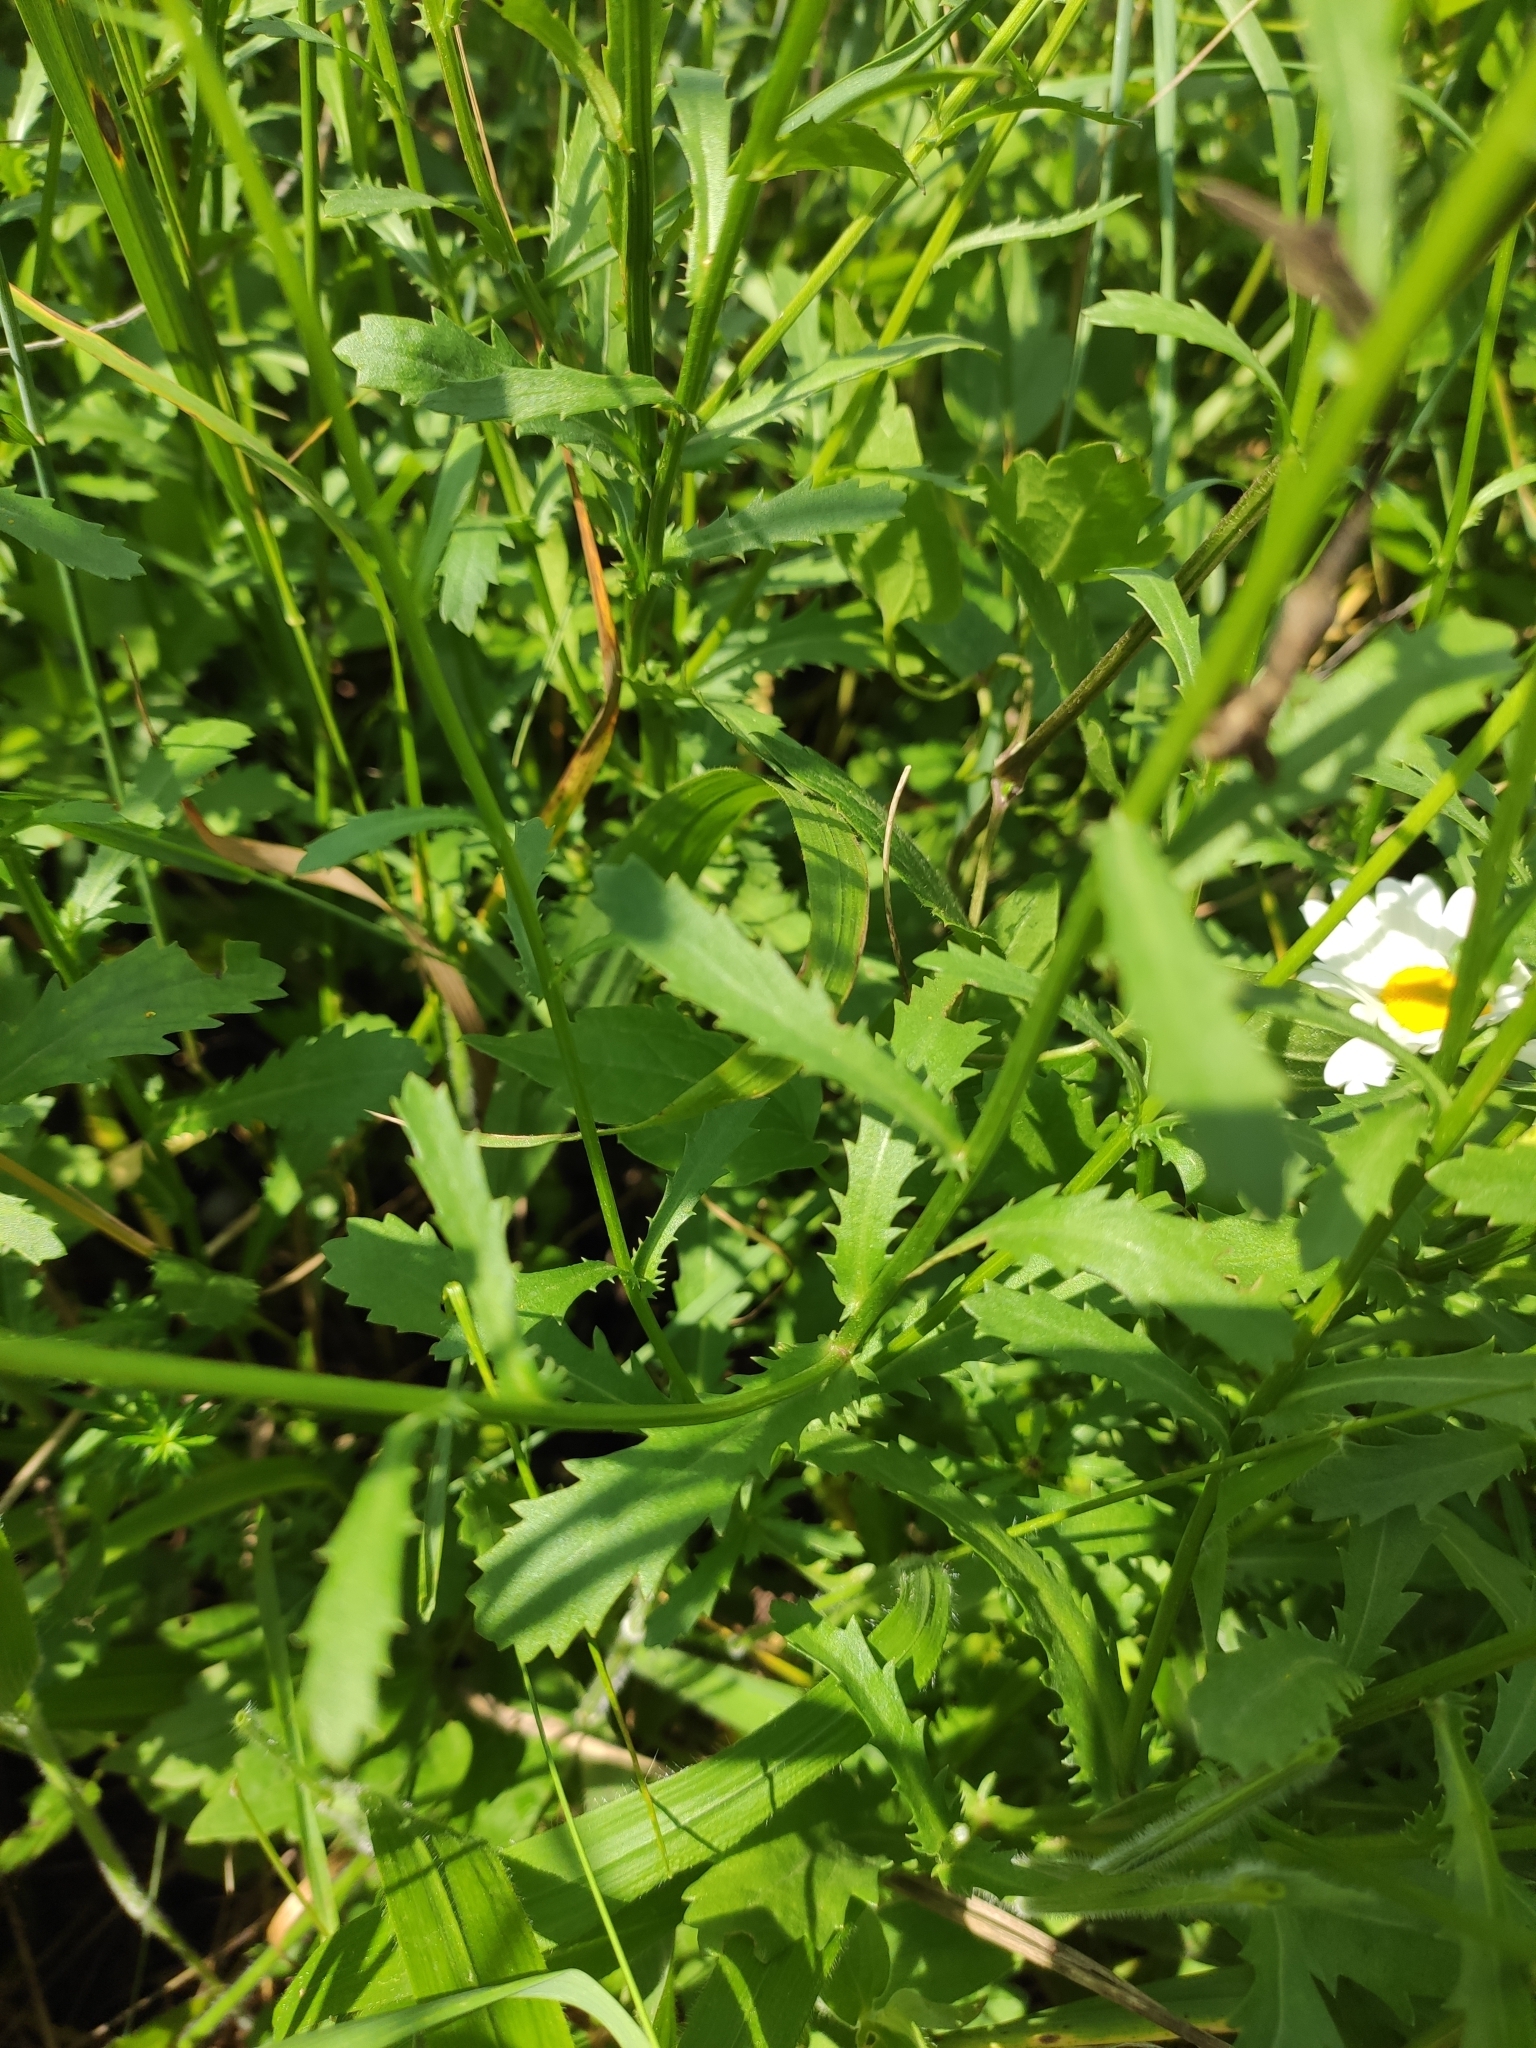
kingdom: Plantae
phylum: Tracheophyta
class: Magnoliopsida
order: Asterales
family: Asteraceae
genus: Leucanthemum
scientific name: Leucanthemum vulgare
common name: Oxeye daisy
